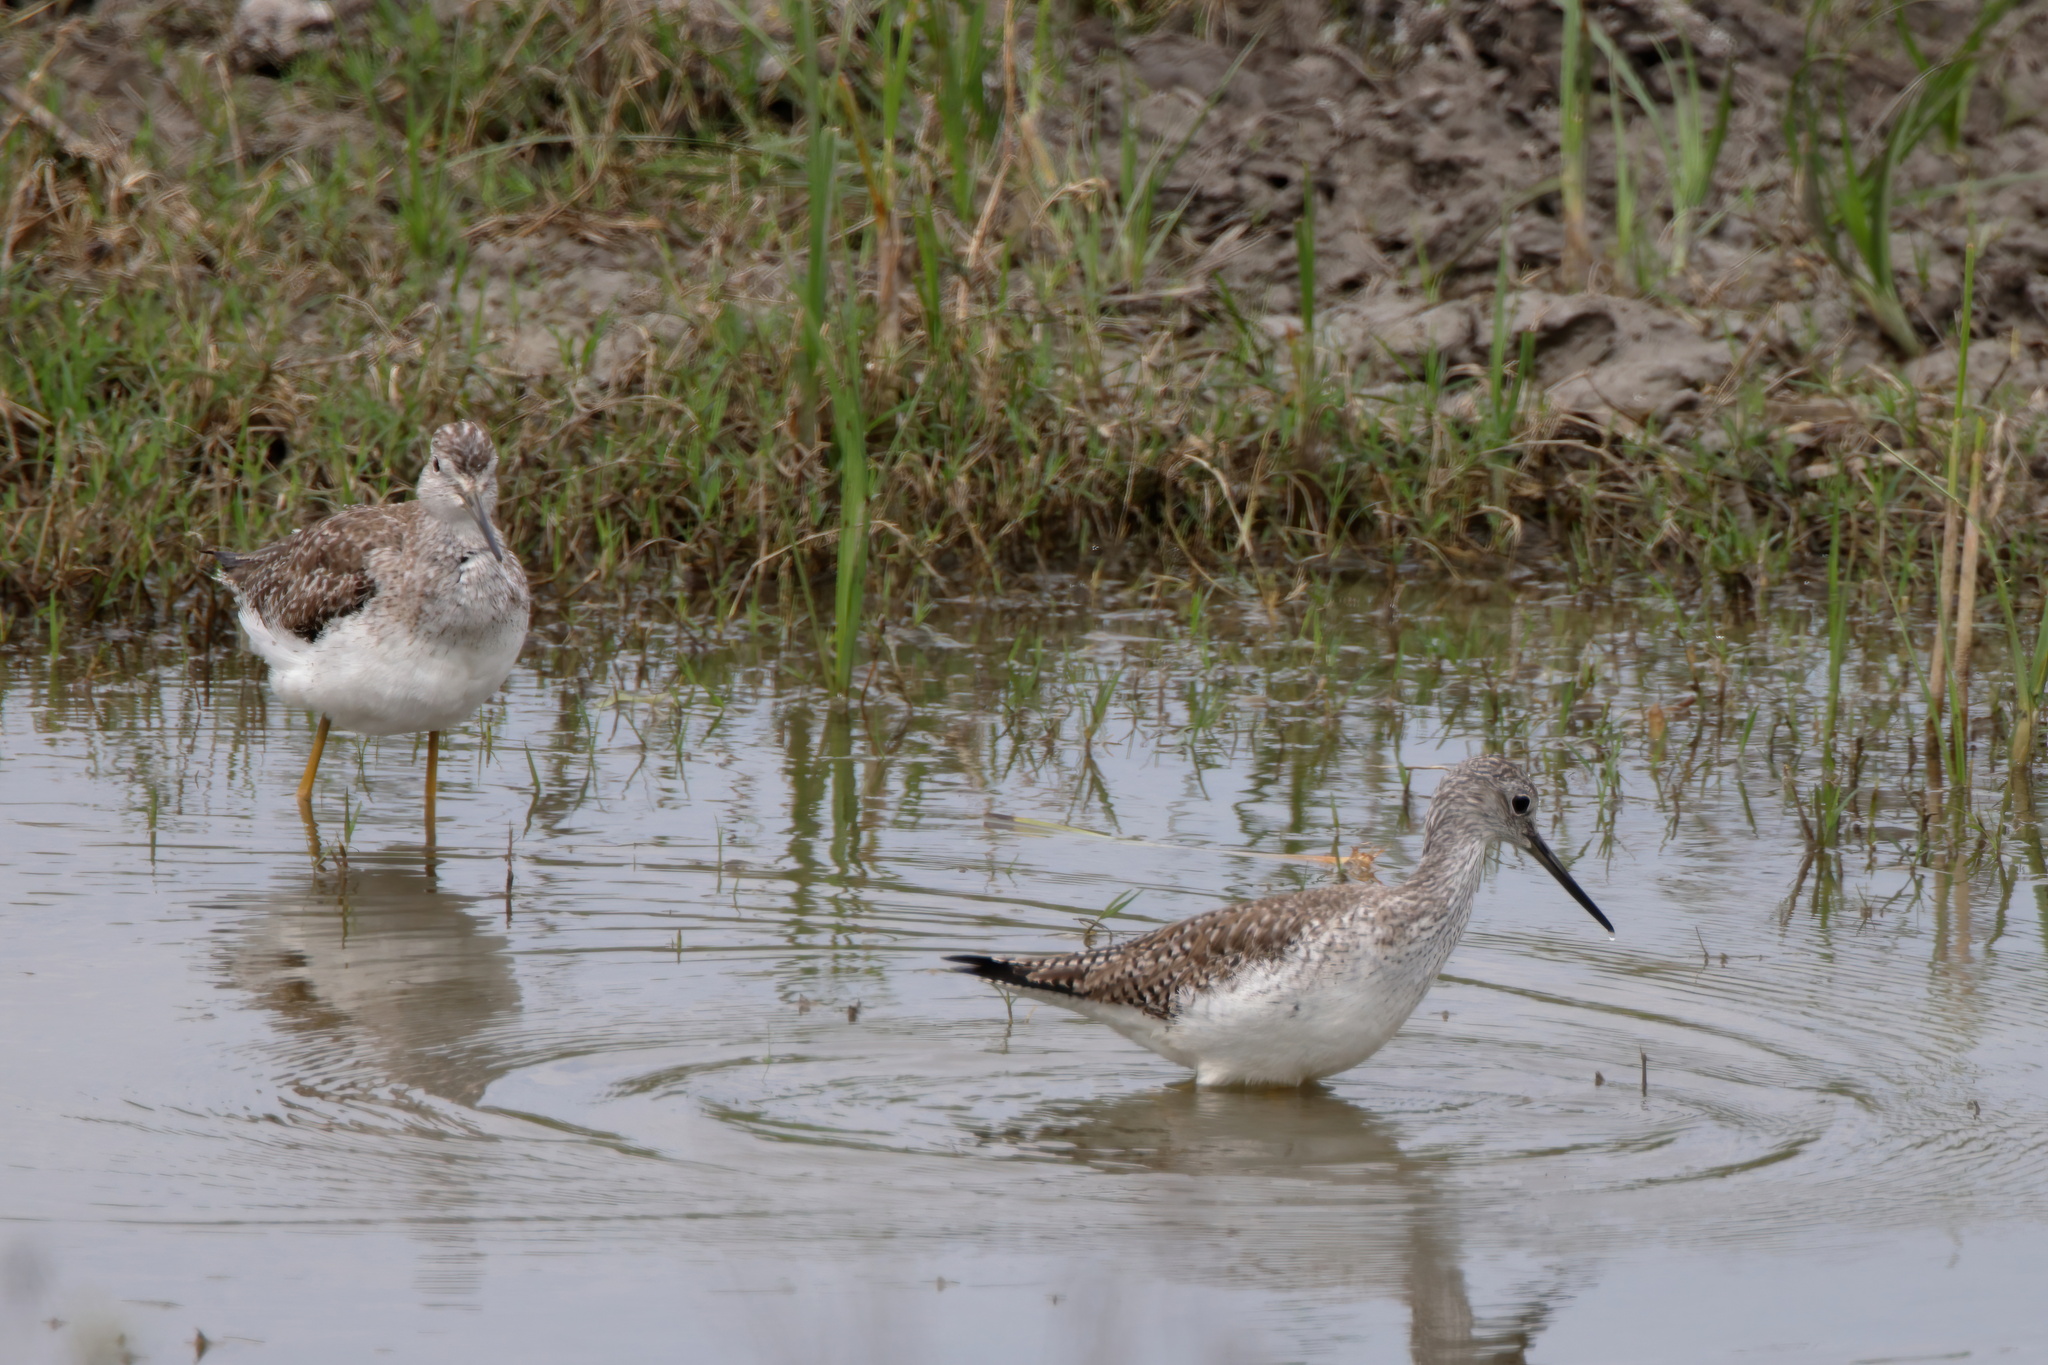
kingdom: Animalia
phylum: Chordata
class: Aves
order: Charadriiformes
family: Scolopacidae
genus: Tringa
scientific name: Tringa melanoleuca
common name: Greater yellowlegs
